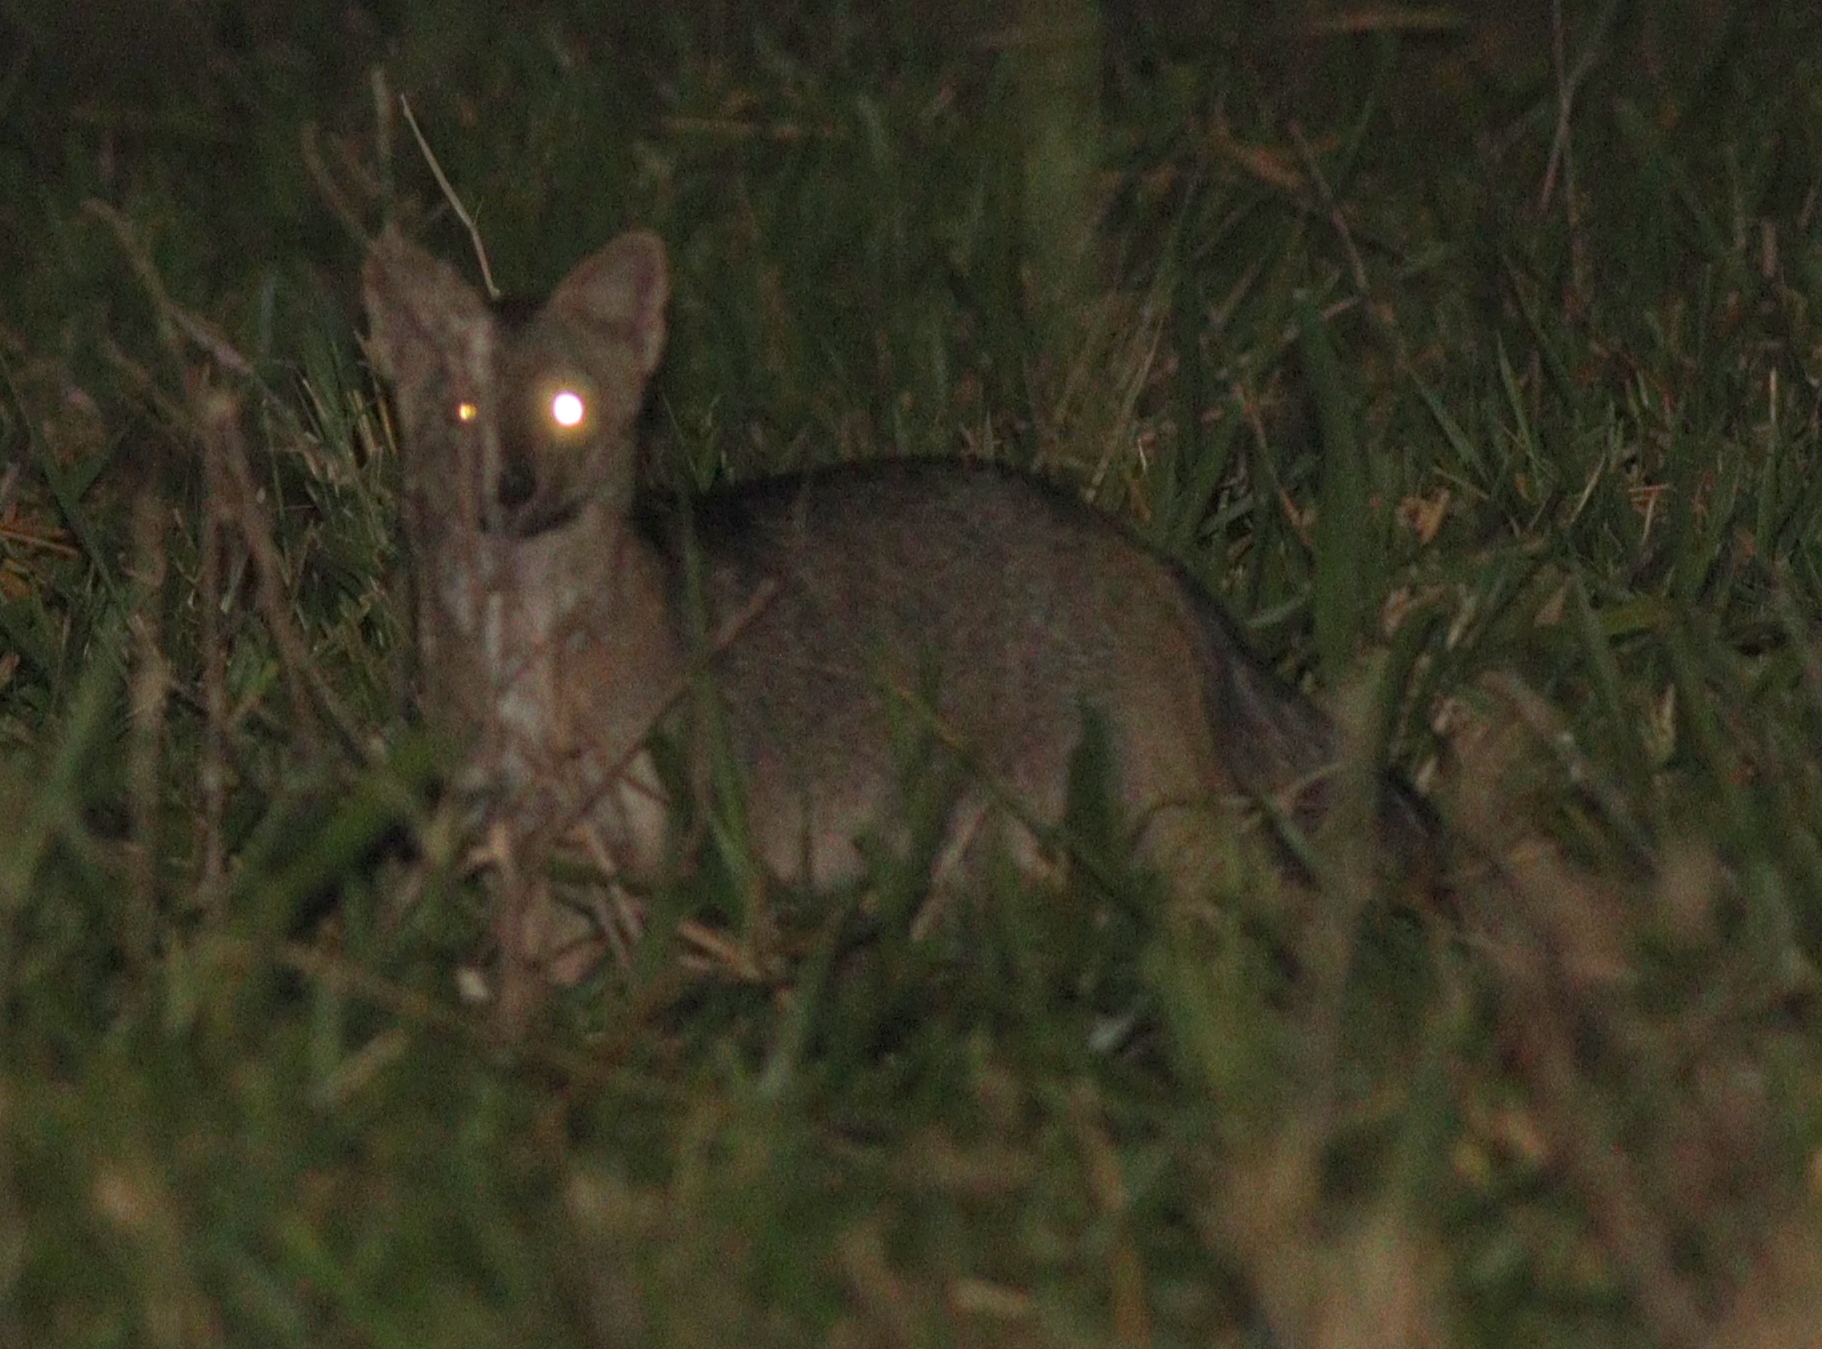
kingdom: Animalia
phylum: Chordata
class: Mammalia
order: Carnivora
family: Canidae
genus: Cerdocyon
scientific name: Cerdocyon thous
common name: Crab-eating fox
